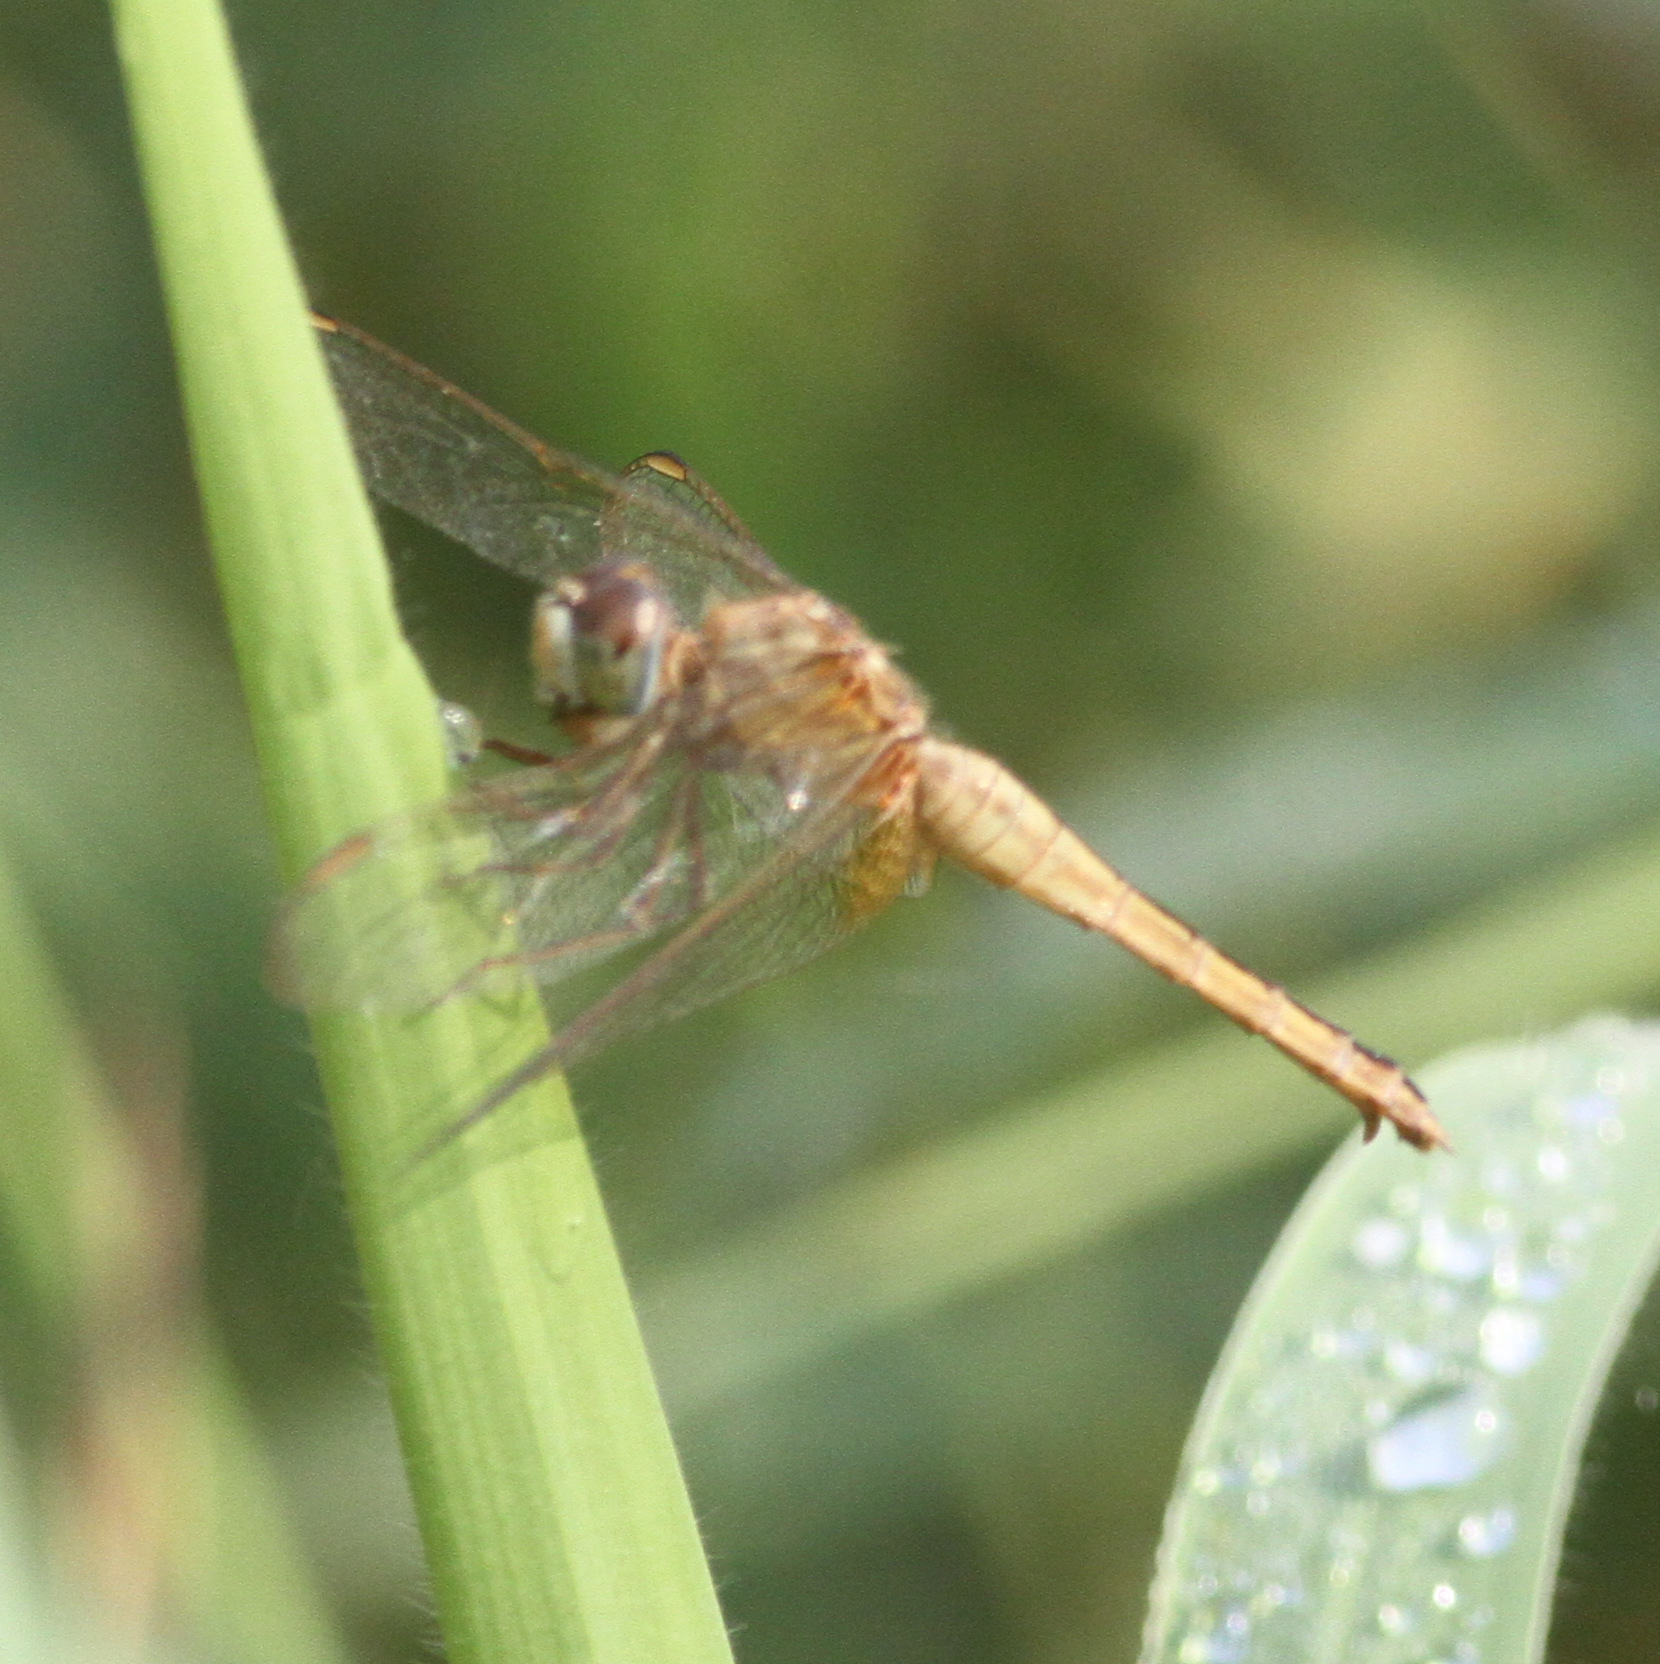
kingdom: Animalia
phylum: Arthropoda
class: Insecta
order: Odonata
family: Libellulidae
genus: Crocothemis
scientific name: Crocothemis servilia
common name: Scarlet skimmer
